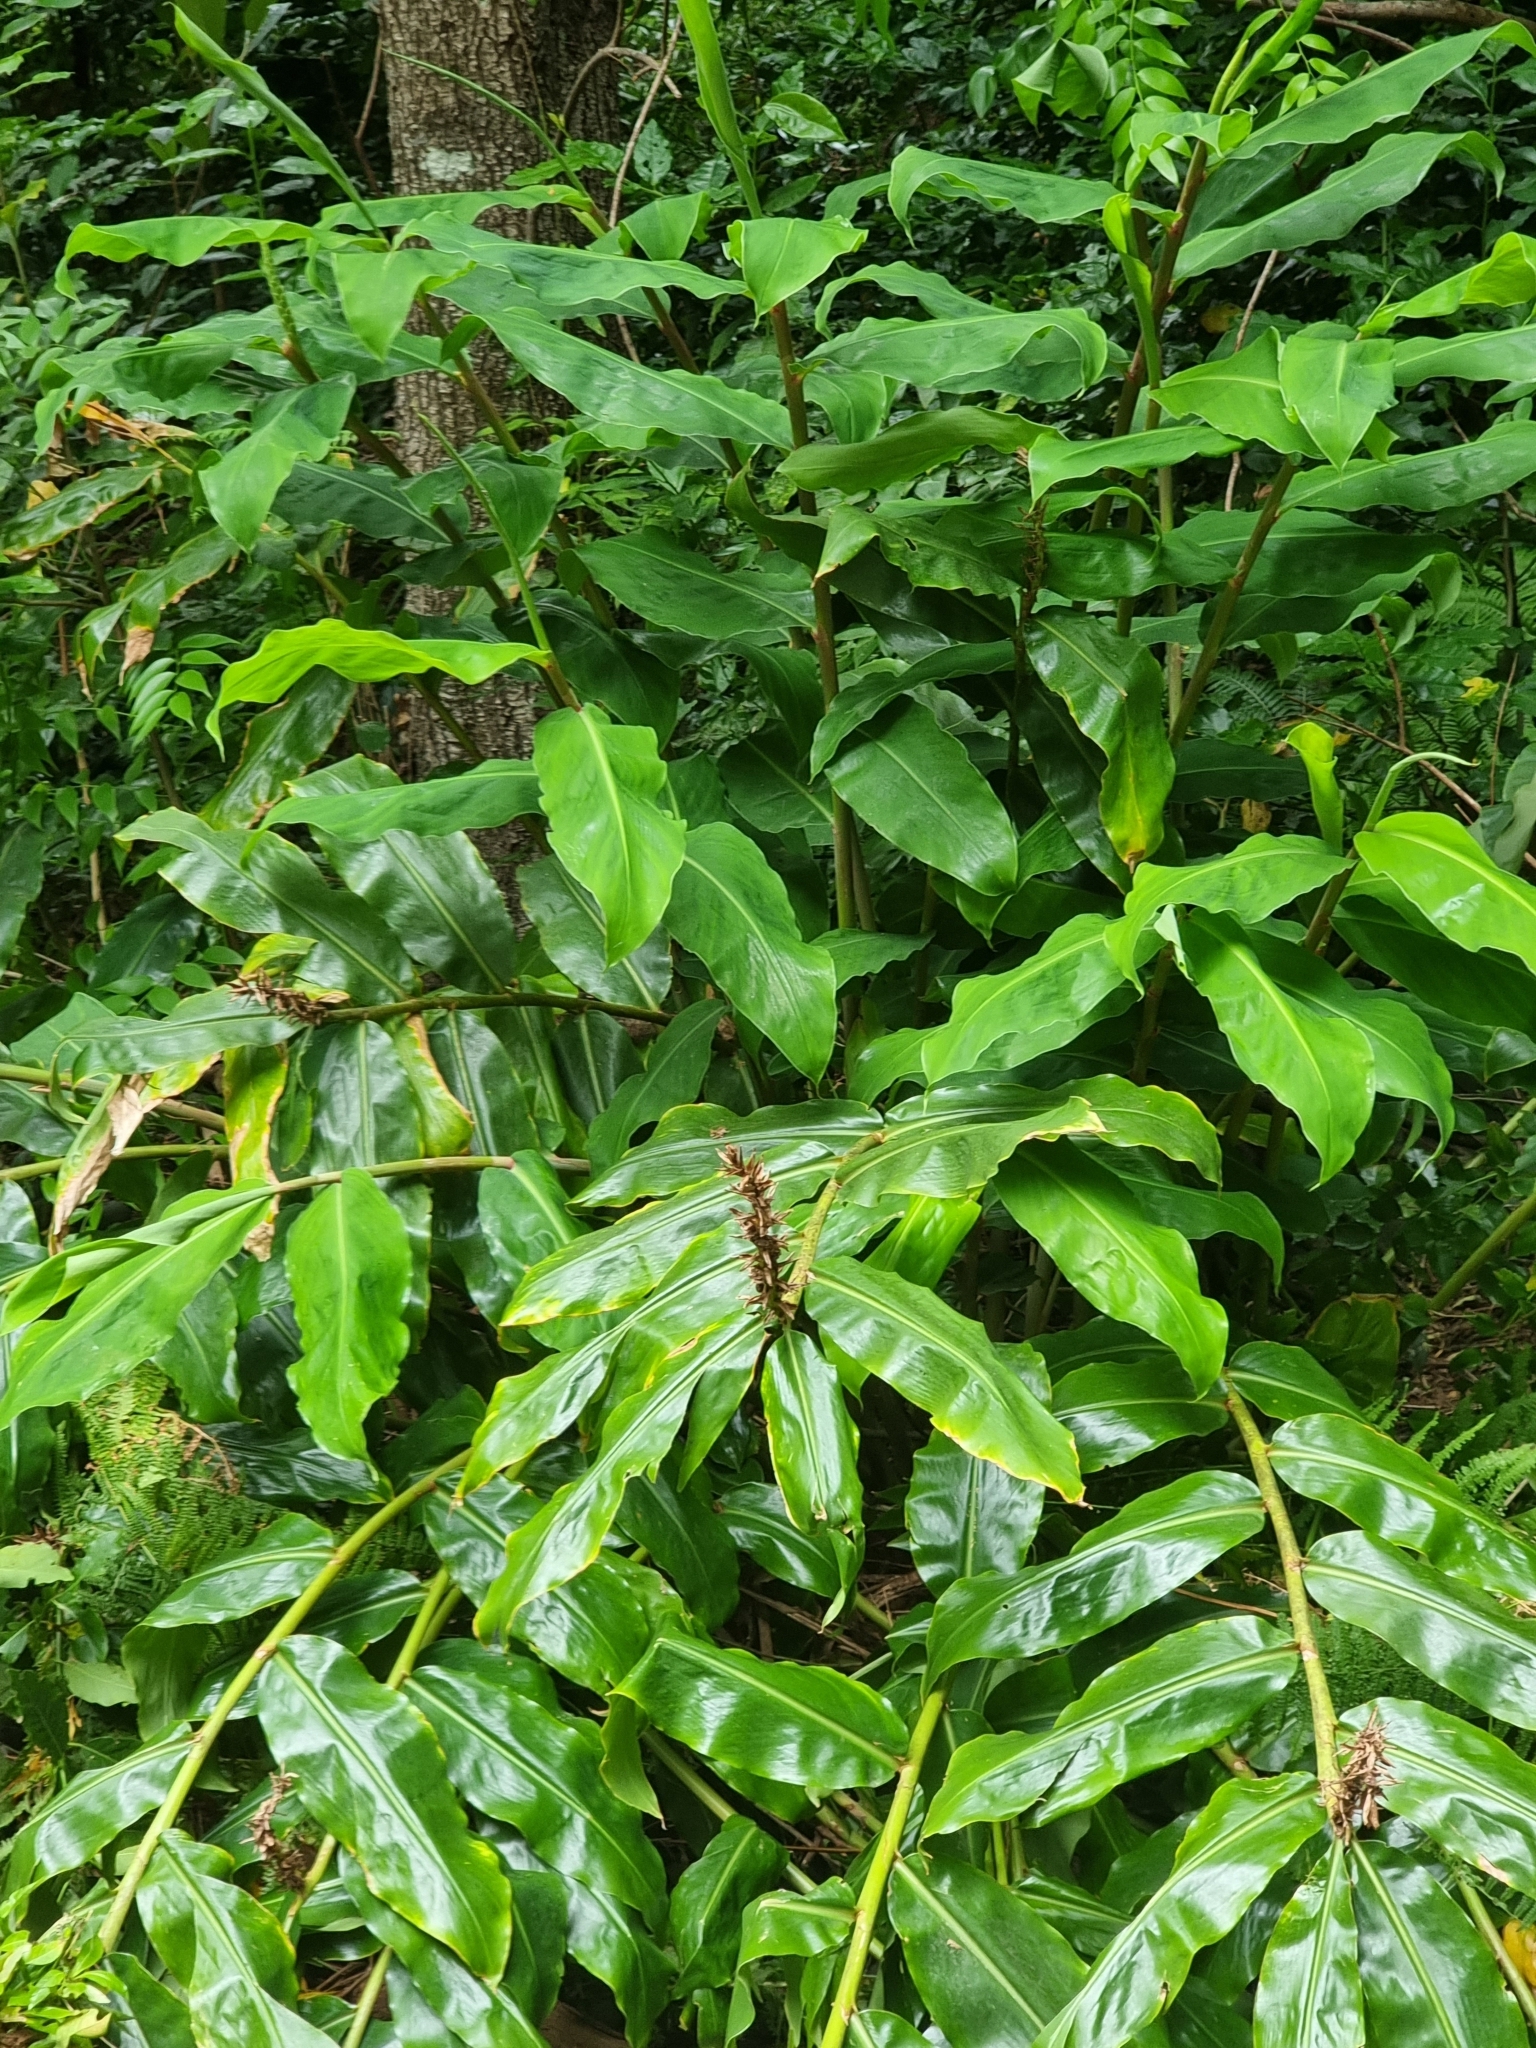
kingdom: Plantae
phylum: Tracheophyta
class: Liliopsida
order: Zingiberales
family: Zingiberaceae
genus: Hedychium
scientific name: Hedychium gardnerianum
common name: Himalayan ginger
